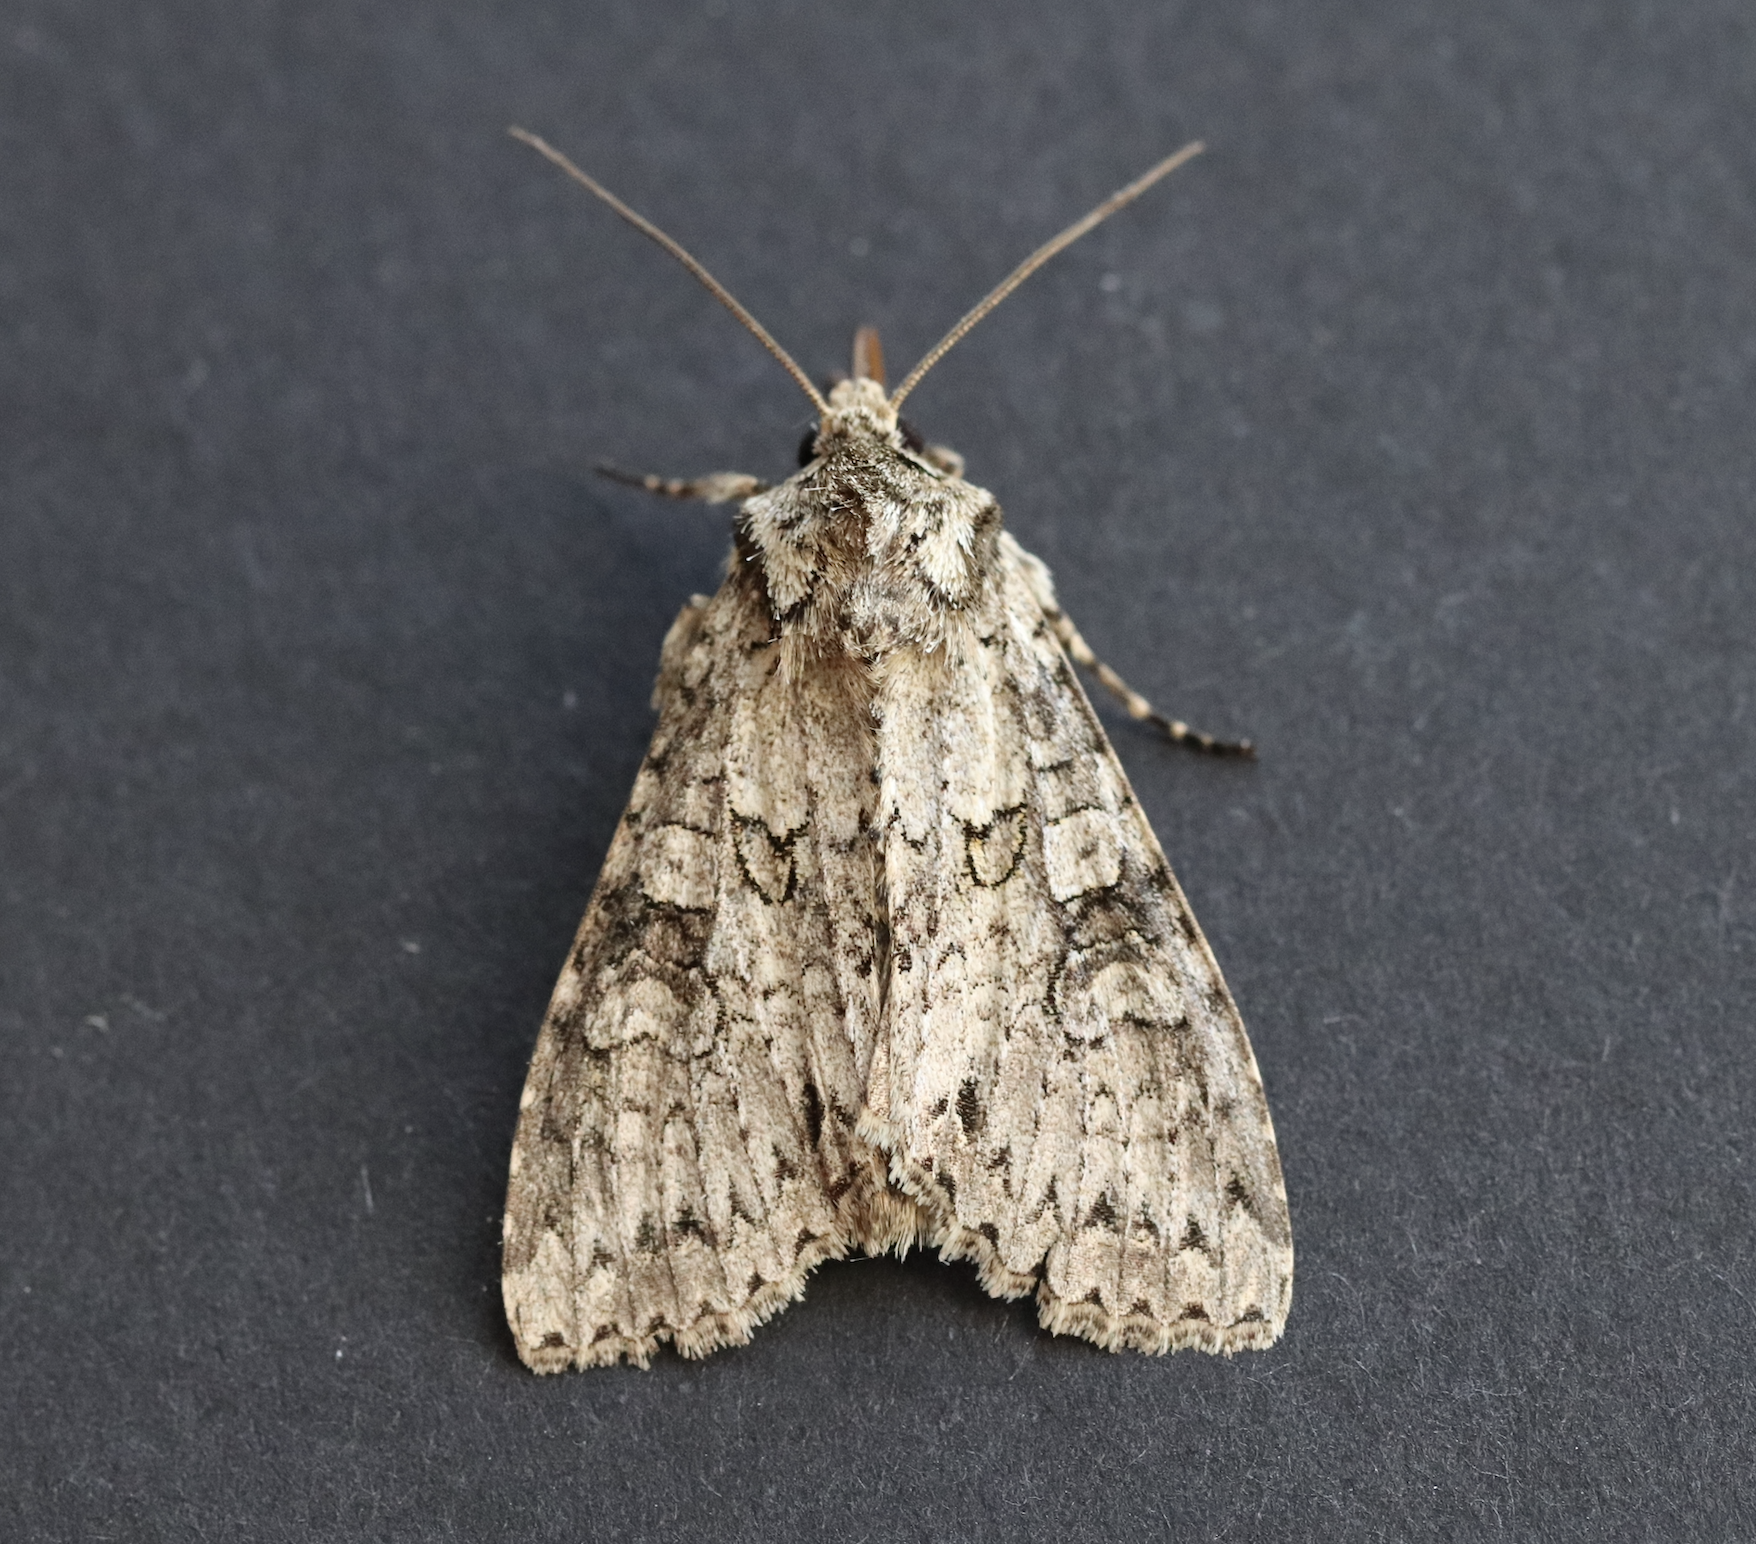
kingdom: Animalia
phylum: Arthropoda
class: Insecta
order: Lepidoptera
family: Noctuidae
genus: Polia
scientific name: Polia nebulosa
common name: Grey arches
